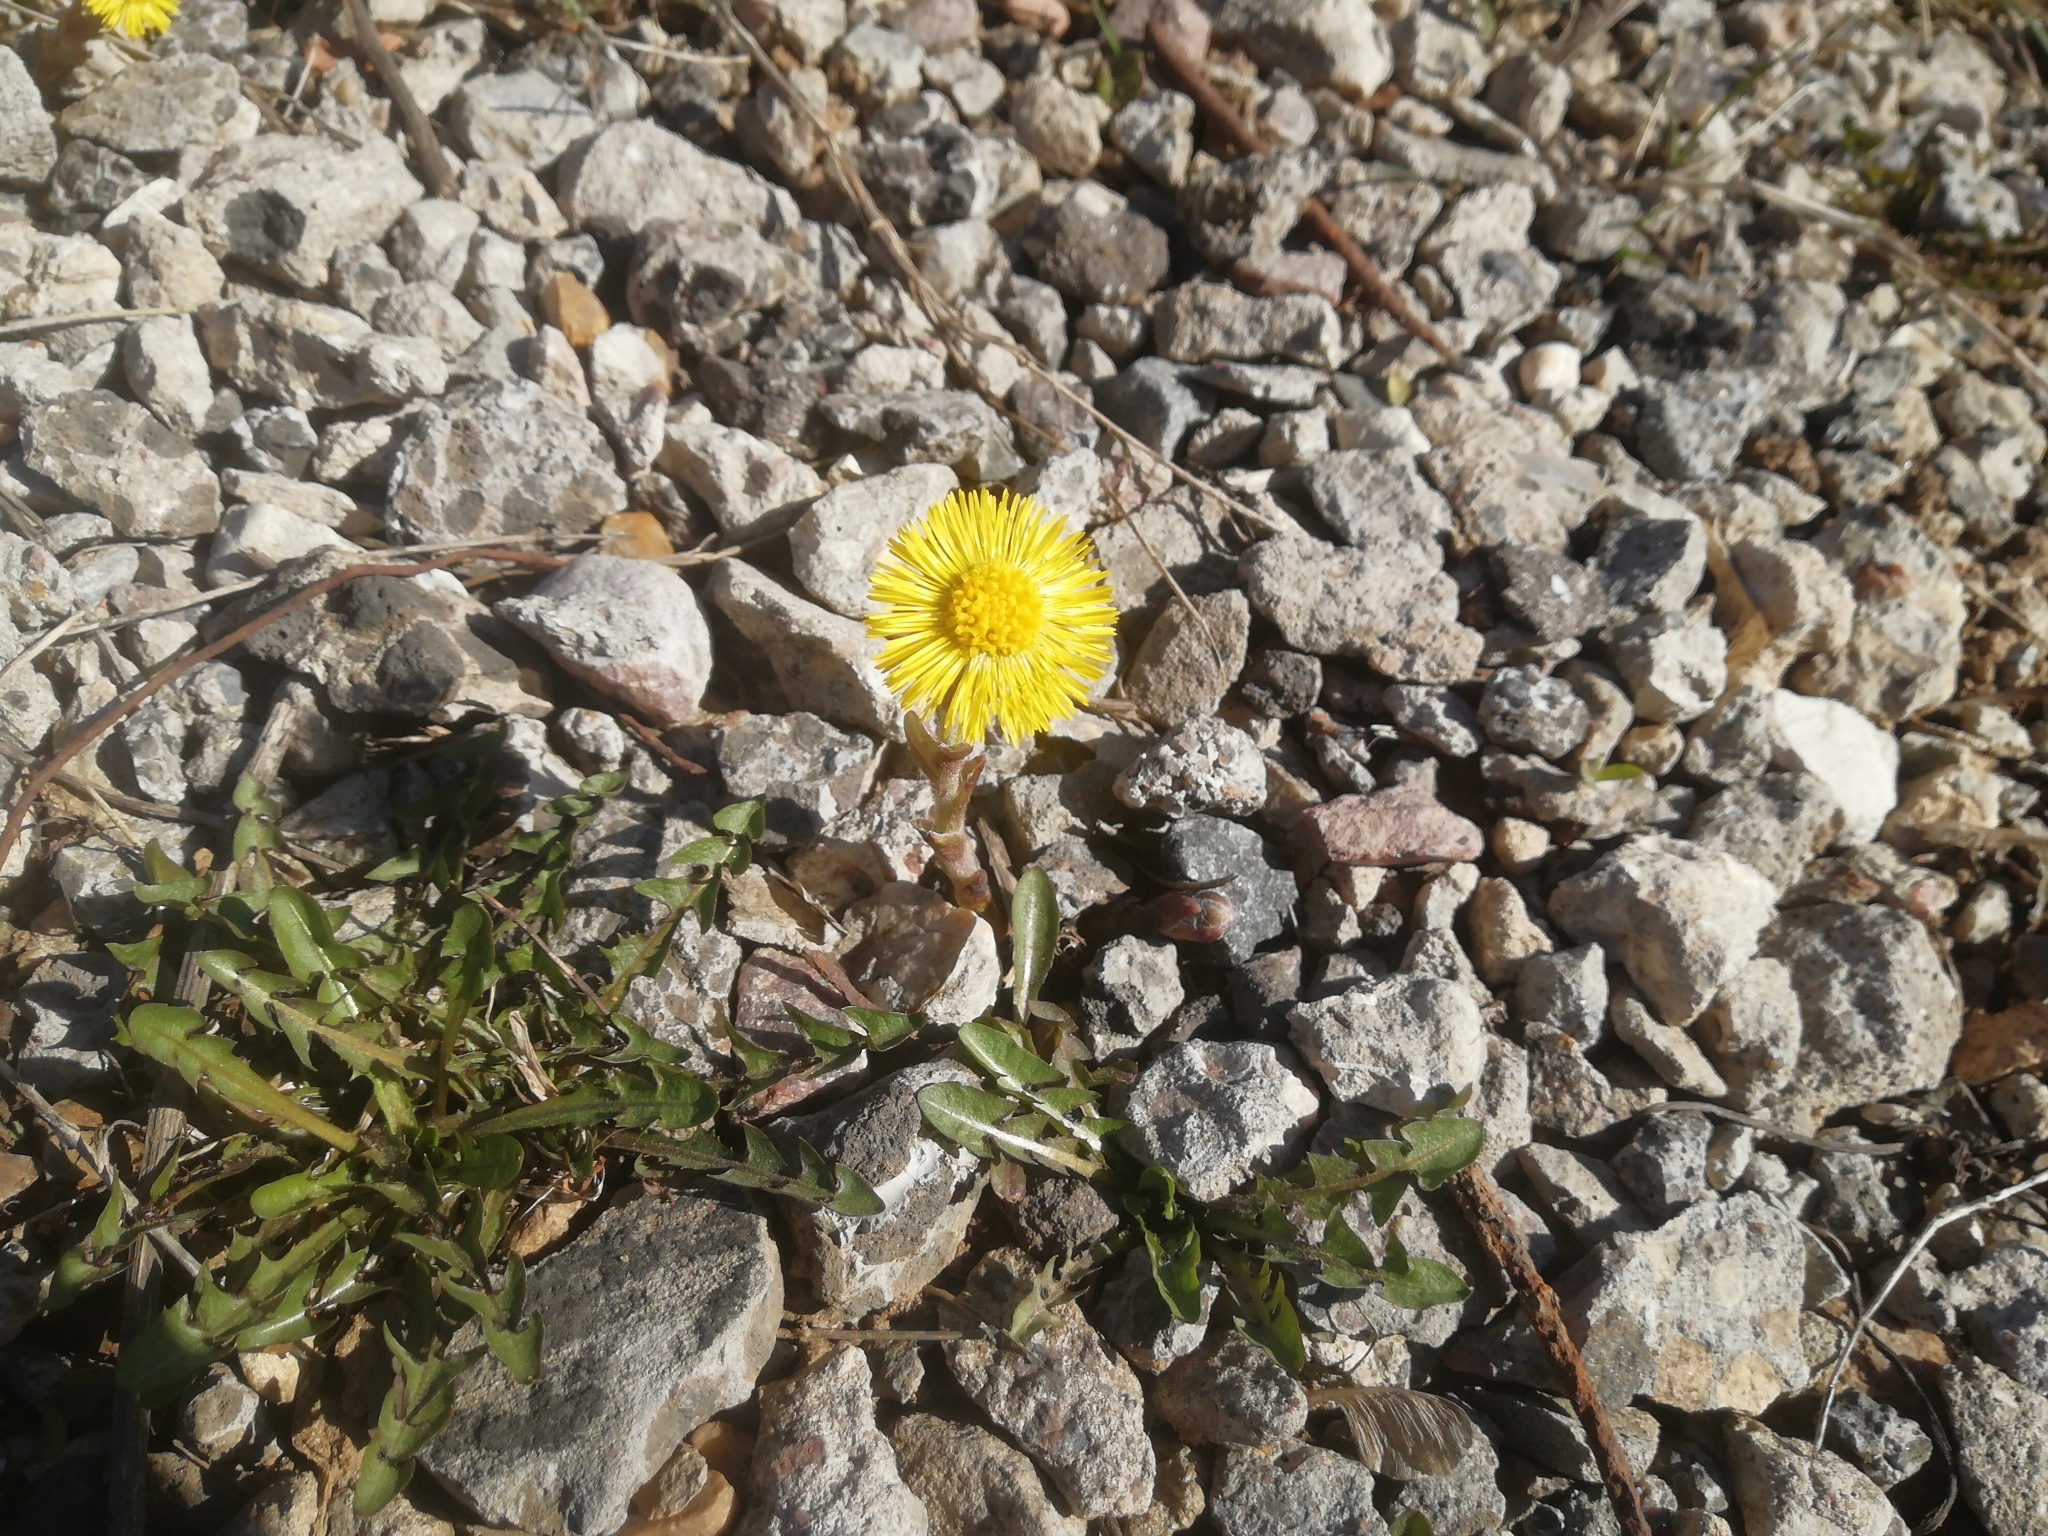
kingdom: Plantae
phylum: Tracheophyta
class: Magnoliopsida
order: Asterales
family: Asteraceae
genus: Tussilago
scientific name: Tussilago farfara
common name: Coltsfoot
